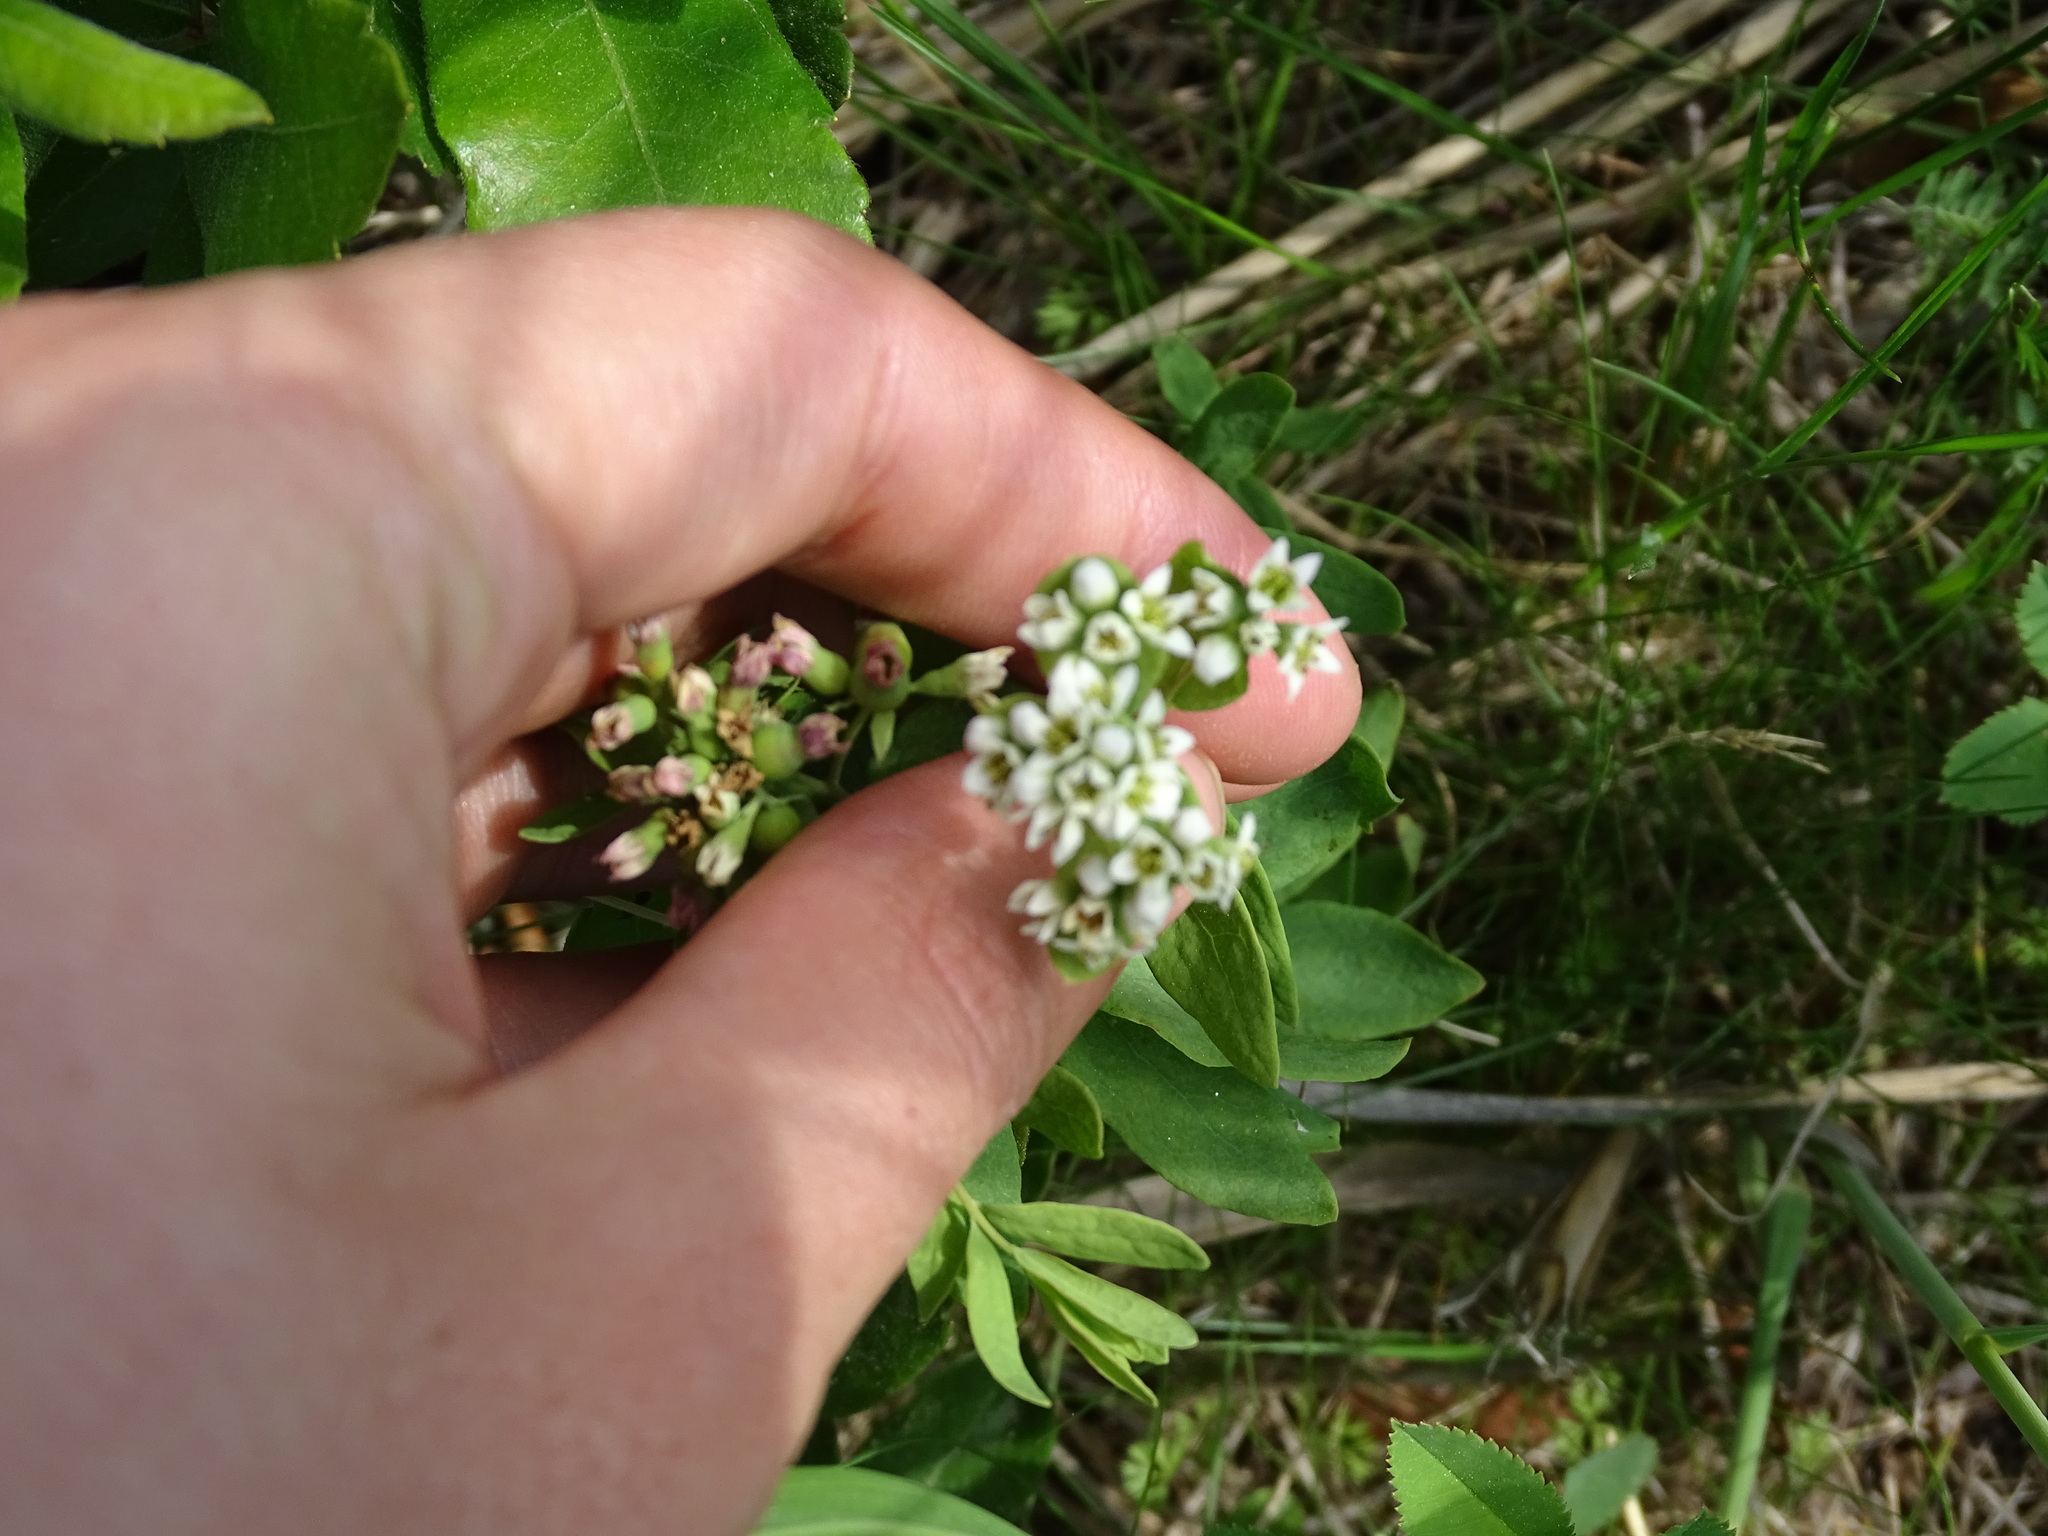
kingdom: Plantae
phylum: Tracheophyta
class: Magnoliopsida
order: Santalales
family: Comandraceae
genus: Comandra
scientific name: Comandra umbellata
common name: Bastard toadflax
